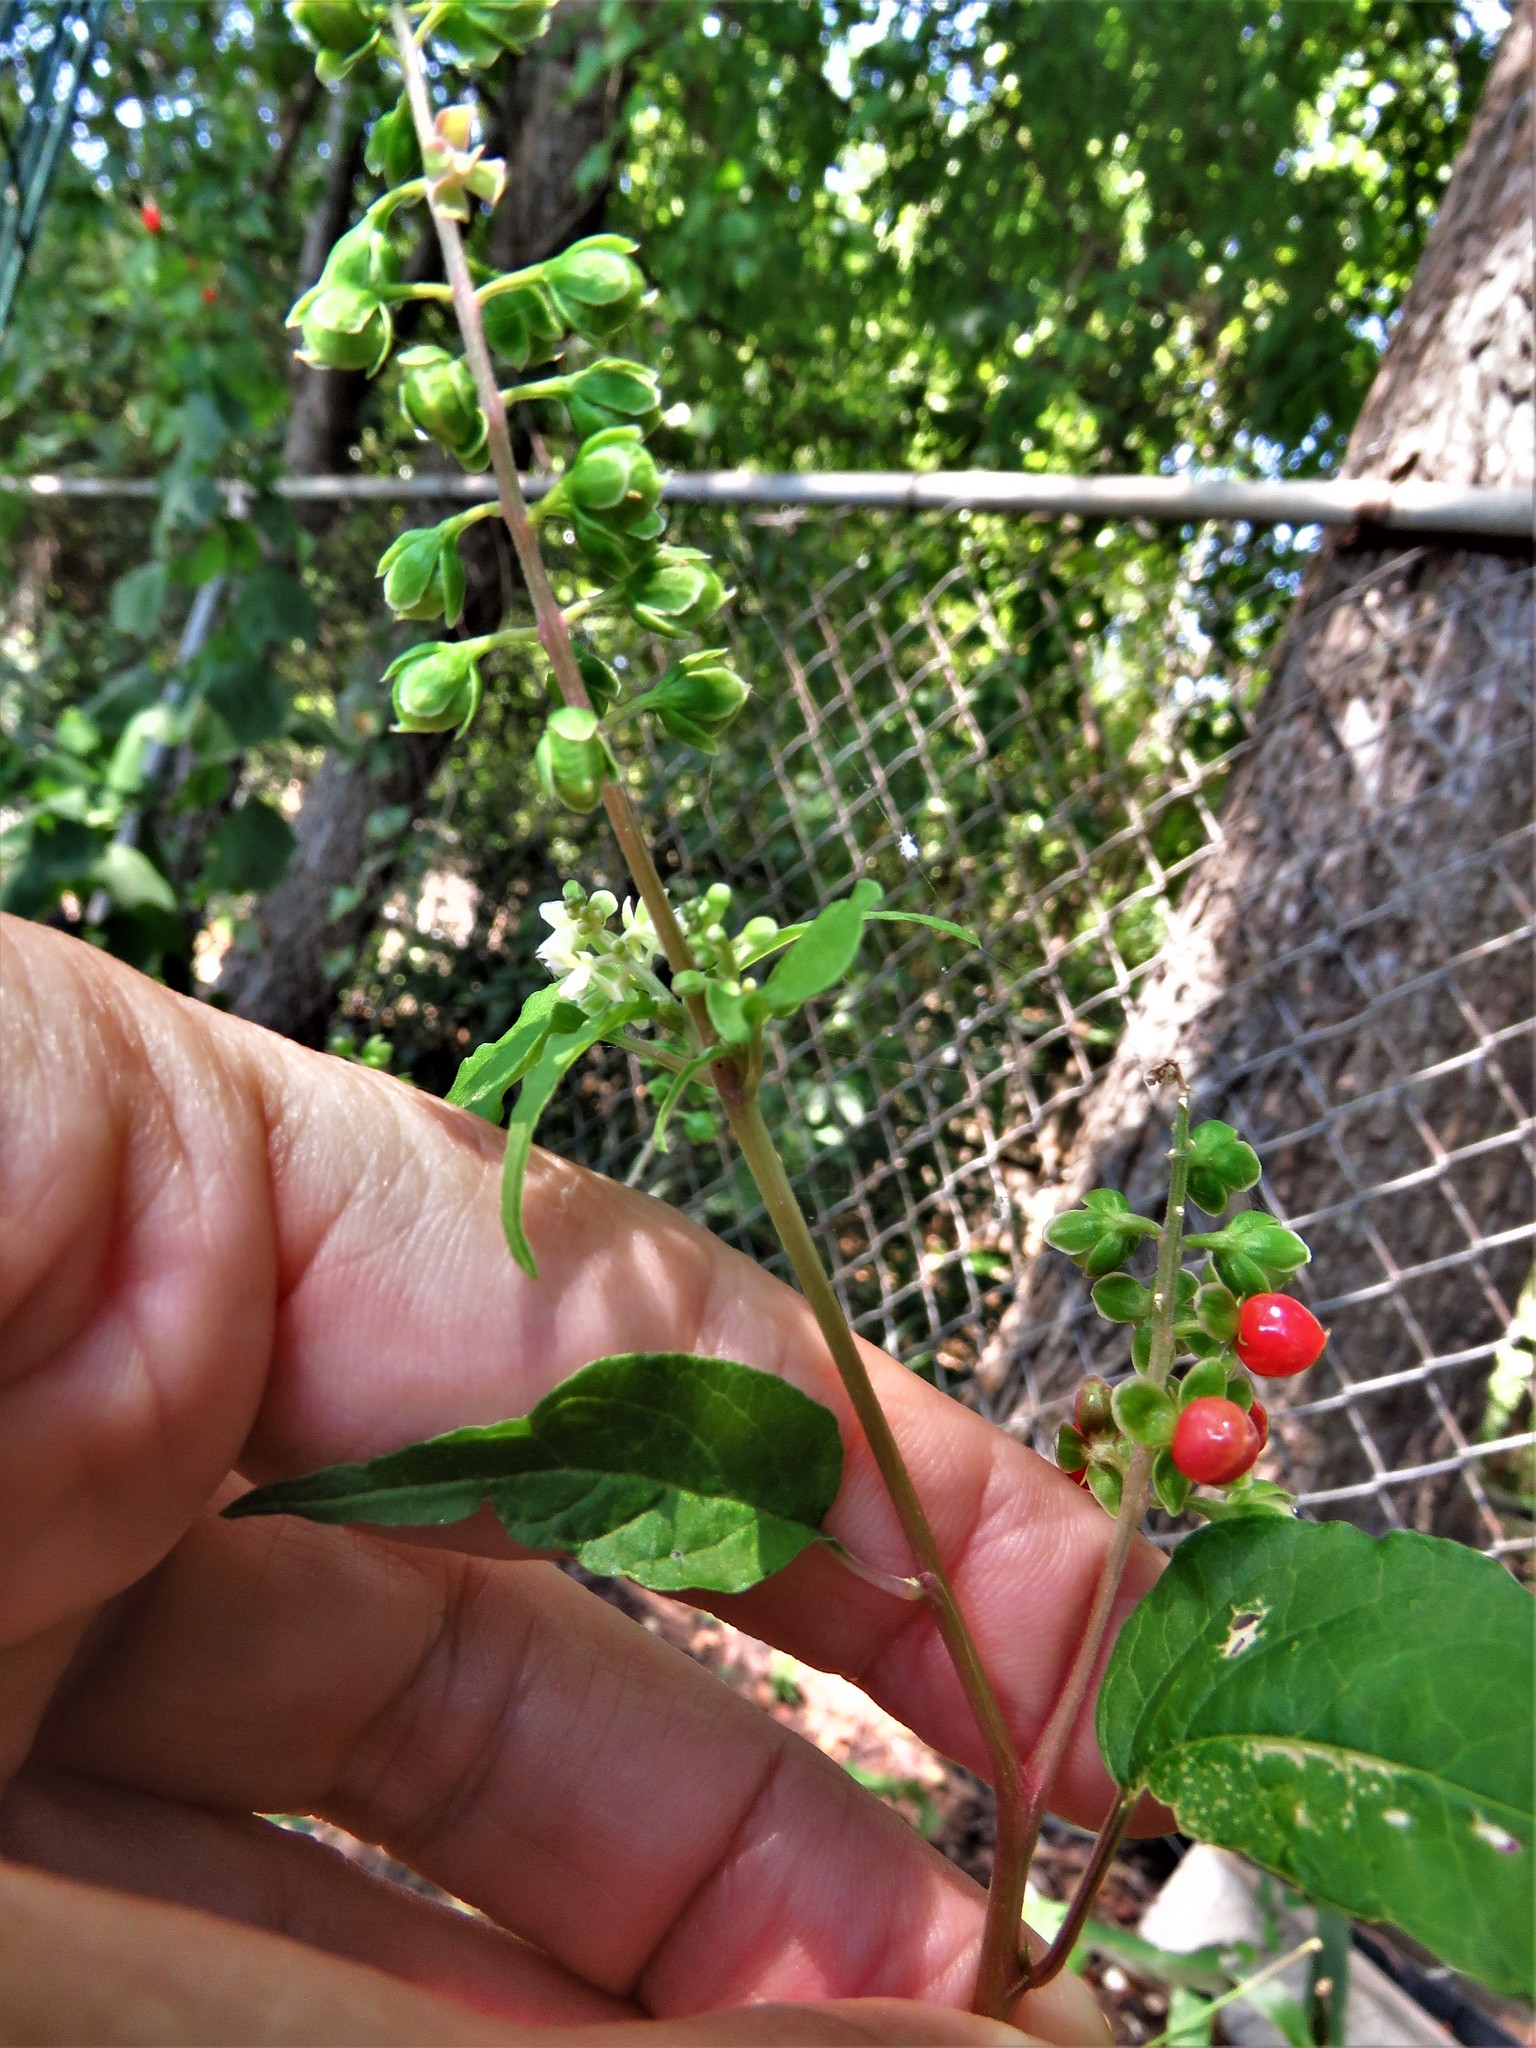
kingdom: Plantae
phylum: Tracheophyta
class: Magnoliopsida
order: Caryophyllales
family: Phytolaccaceae
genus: Rivina
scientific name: Rivina humilis
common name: Rougeplant
